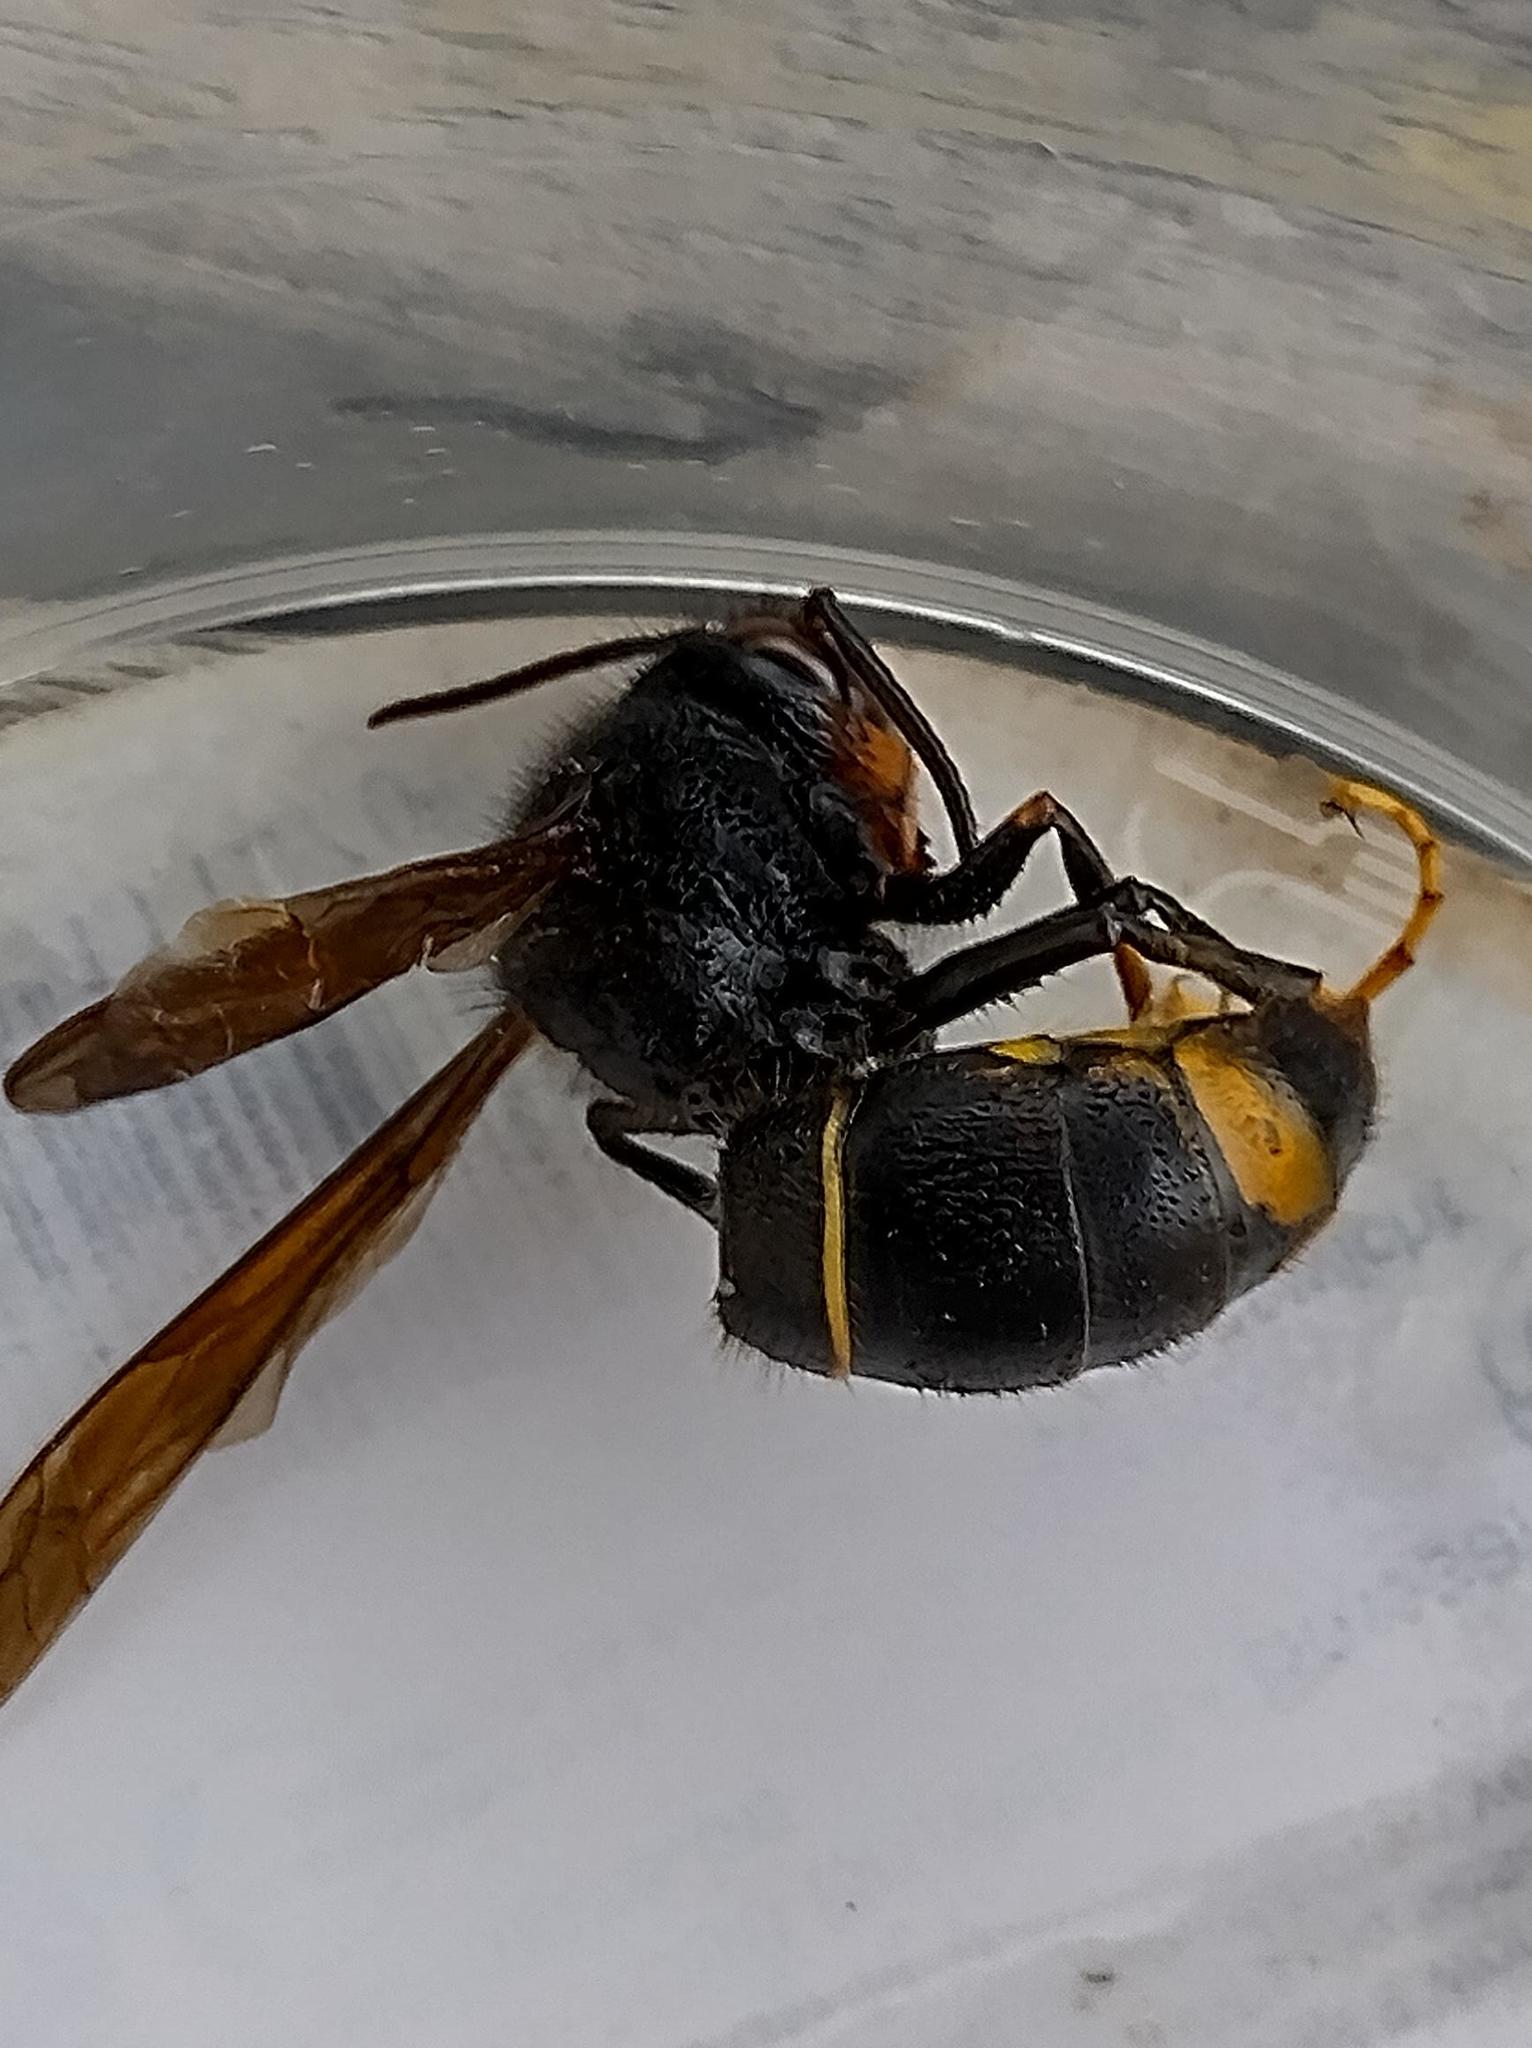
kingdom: Animalia
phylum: Arthropoda
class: Insecta
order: Hymenoptera
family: Vespidae
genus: Vespa
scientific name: Vespa velutina
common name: Asian hornet
